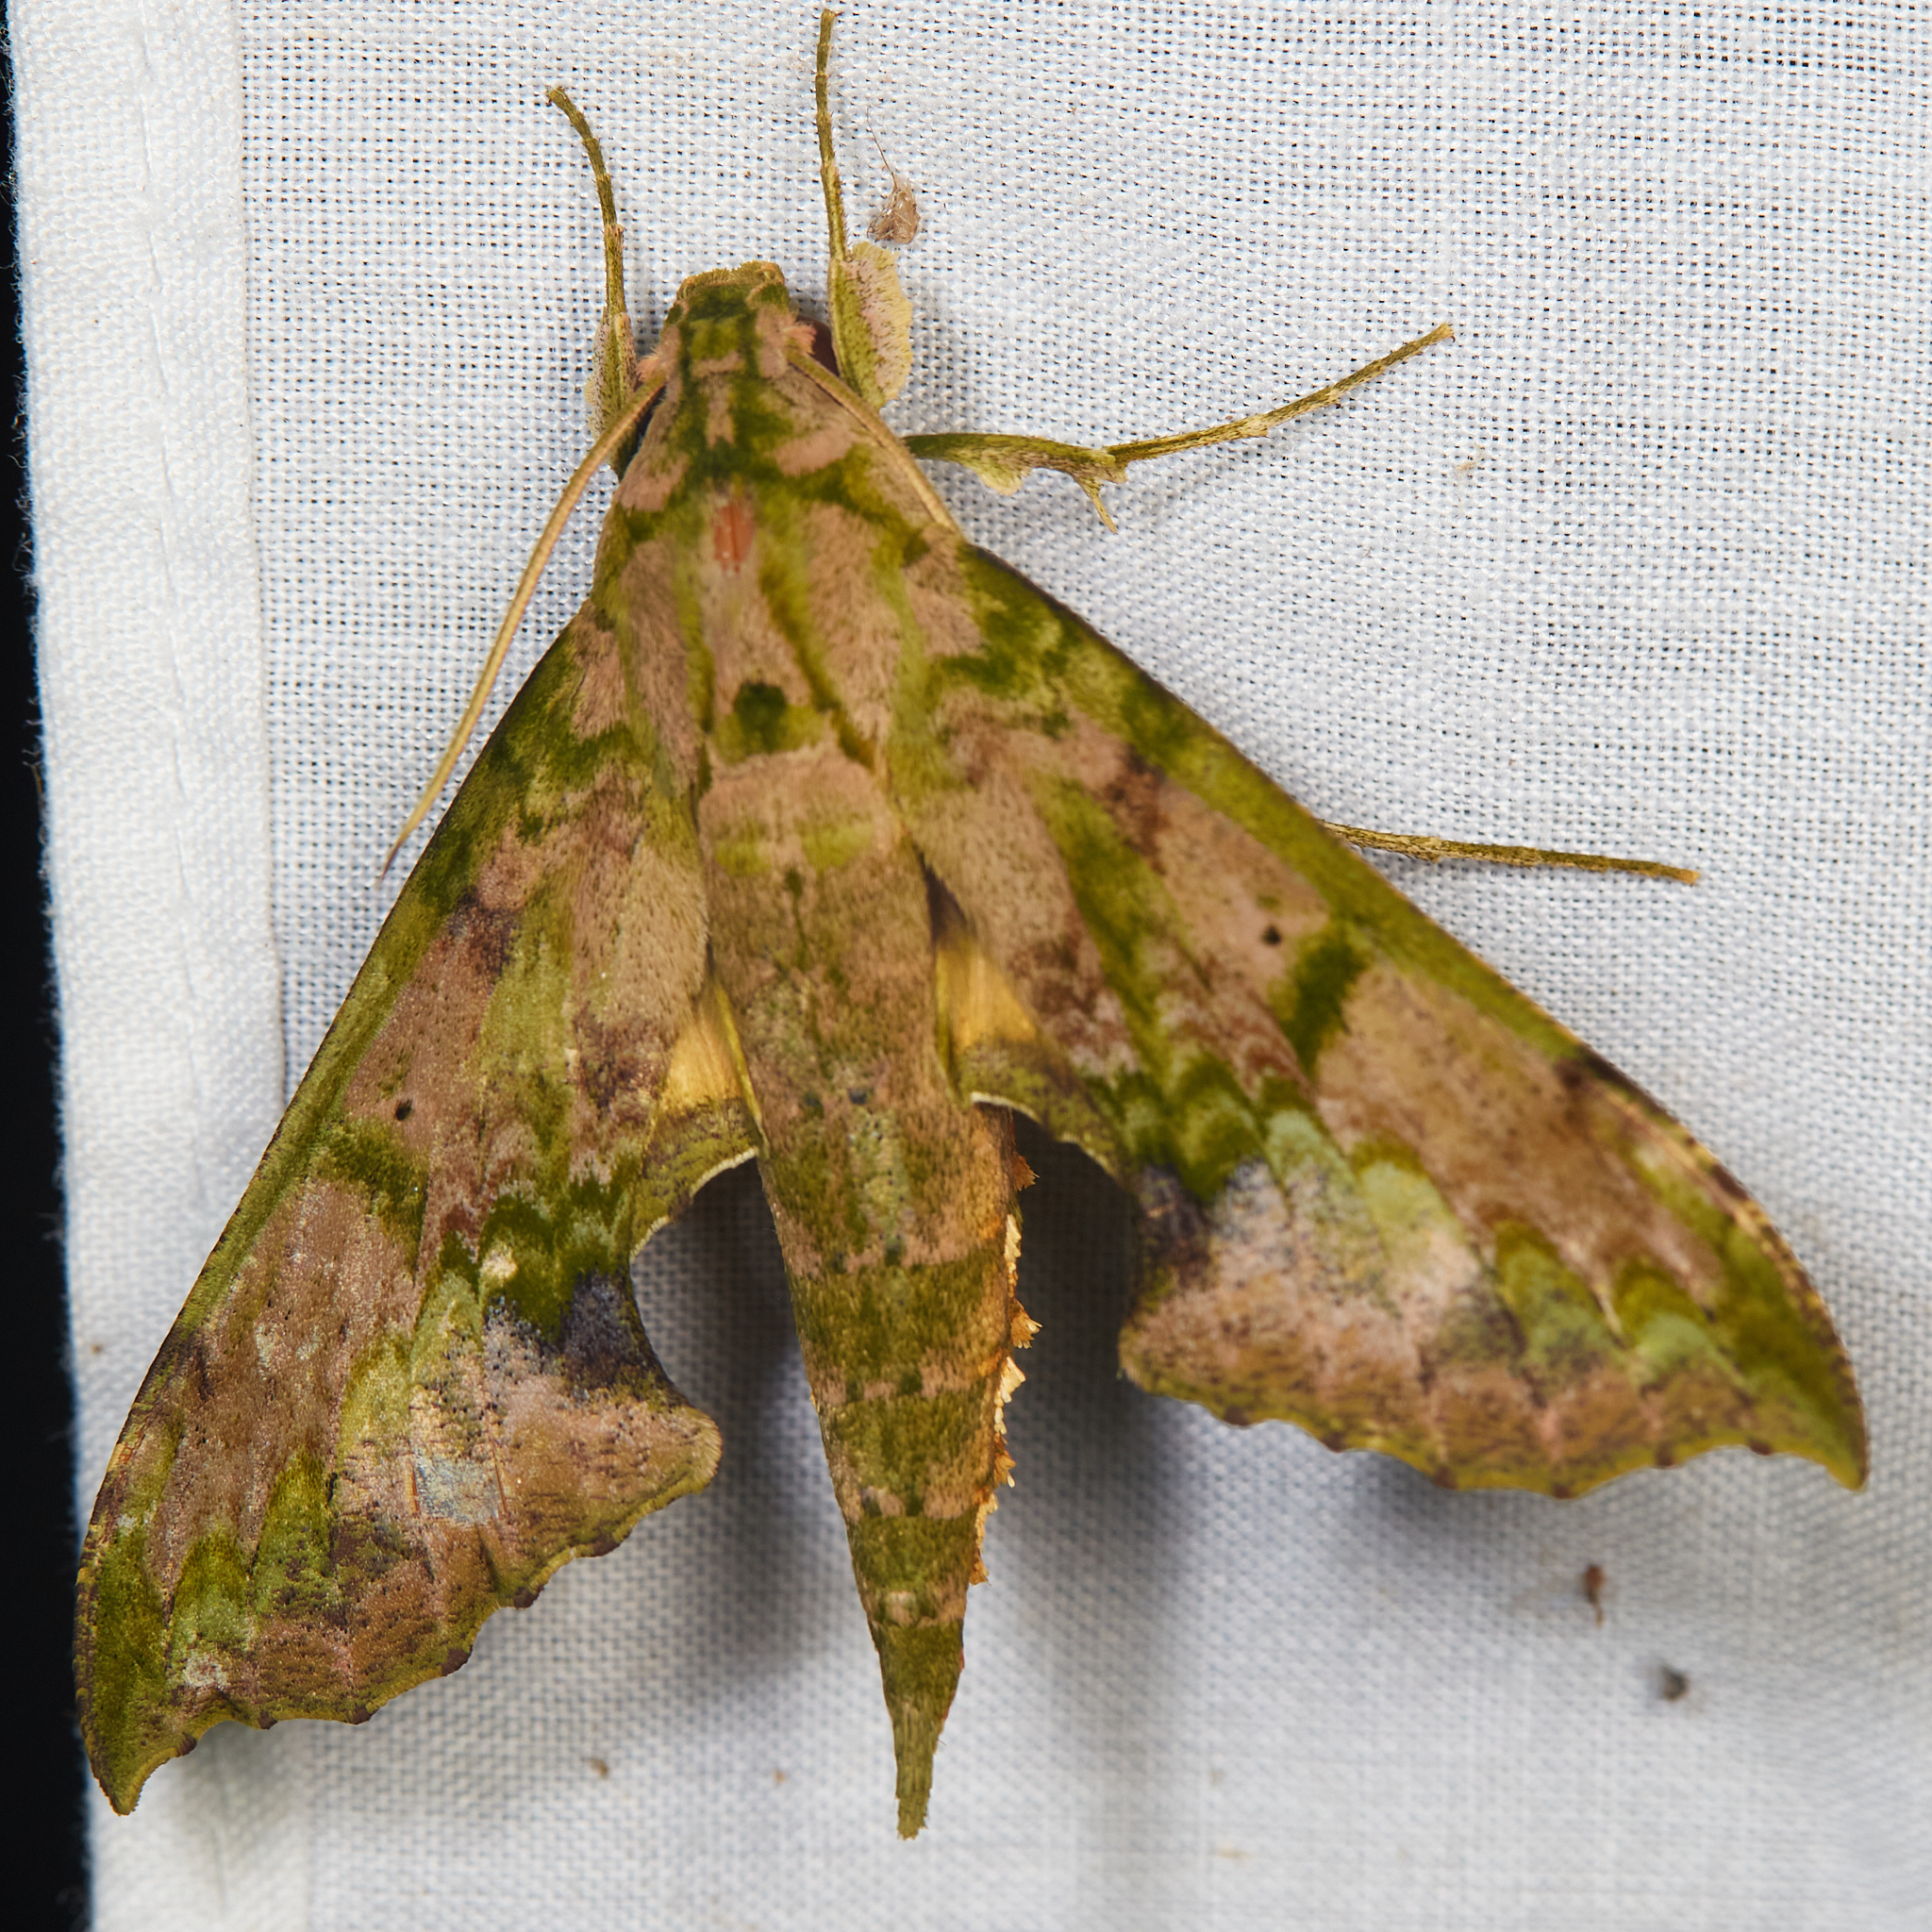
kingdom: Animalia
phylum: Arthropoda
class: Insecta
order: Lepidoptera
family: Sphingidae
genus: Xylophanes
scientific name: Xylophanes zurcheri
